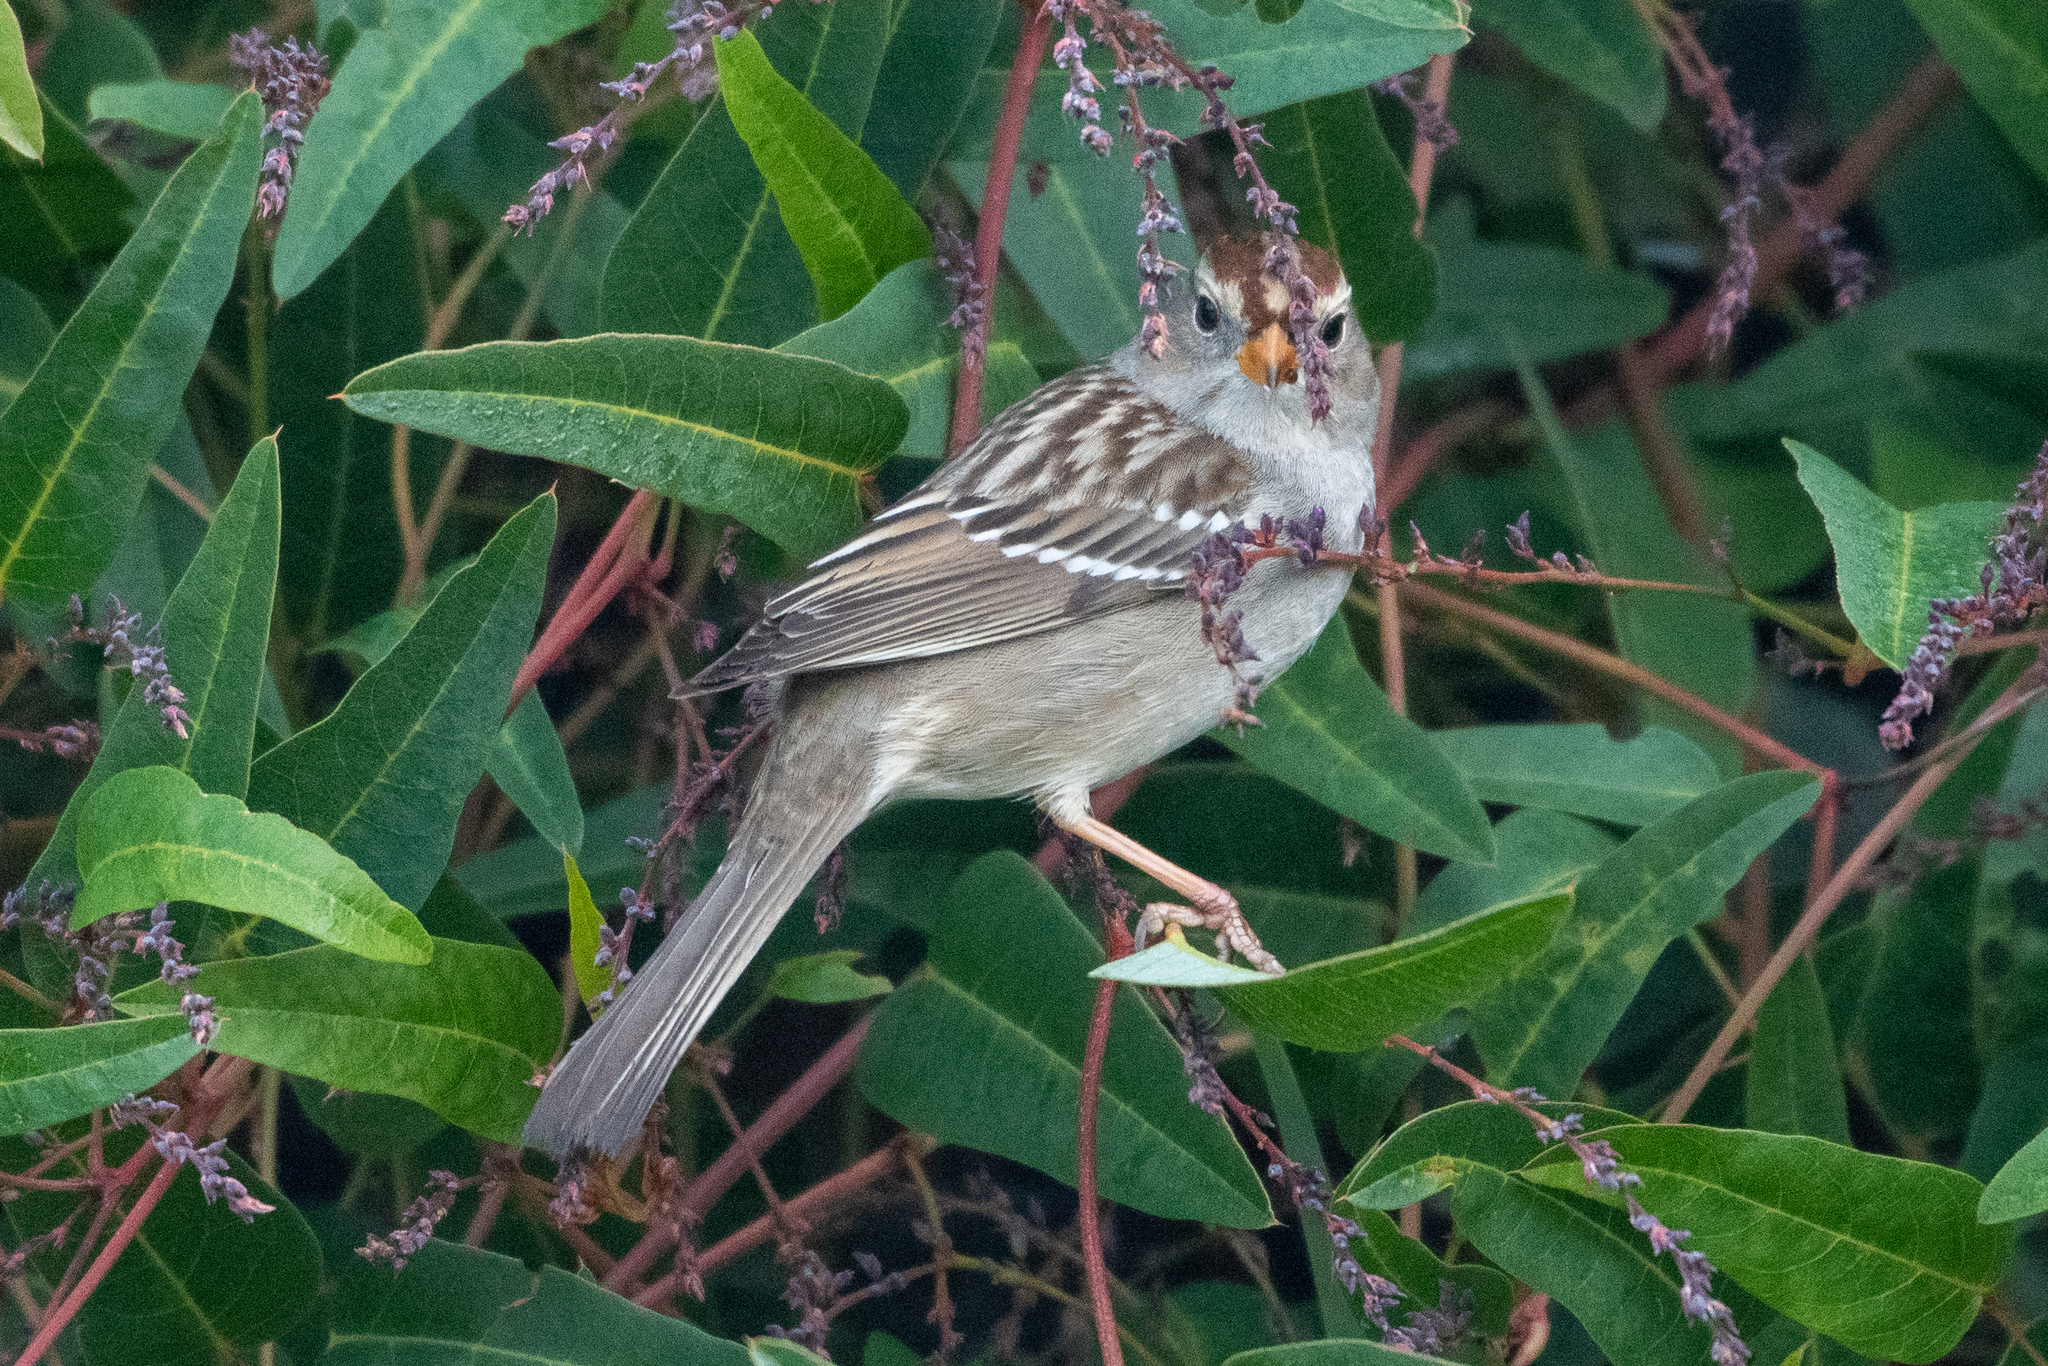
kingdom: Animalia
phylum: Chordata
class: Aves
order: Passeriformes
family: Passerellidae
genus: Zonotrichia
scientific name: Zonotrichia leucophrys
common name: White-crowned sparrow
